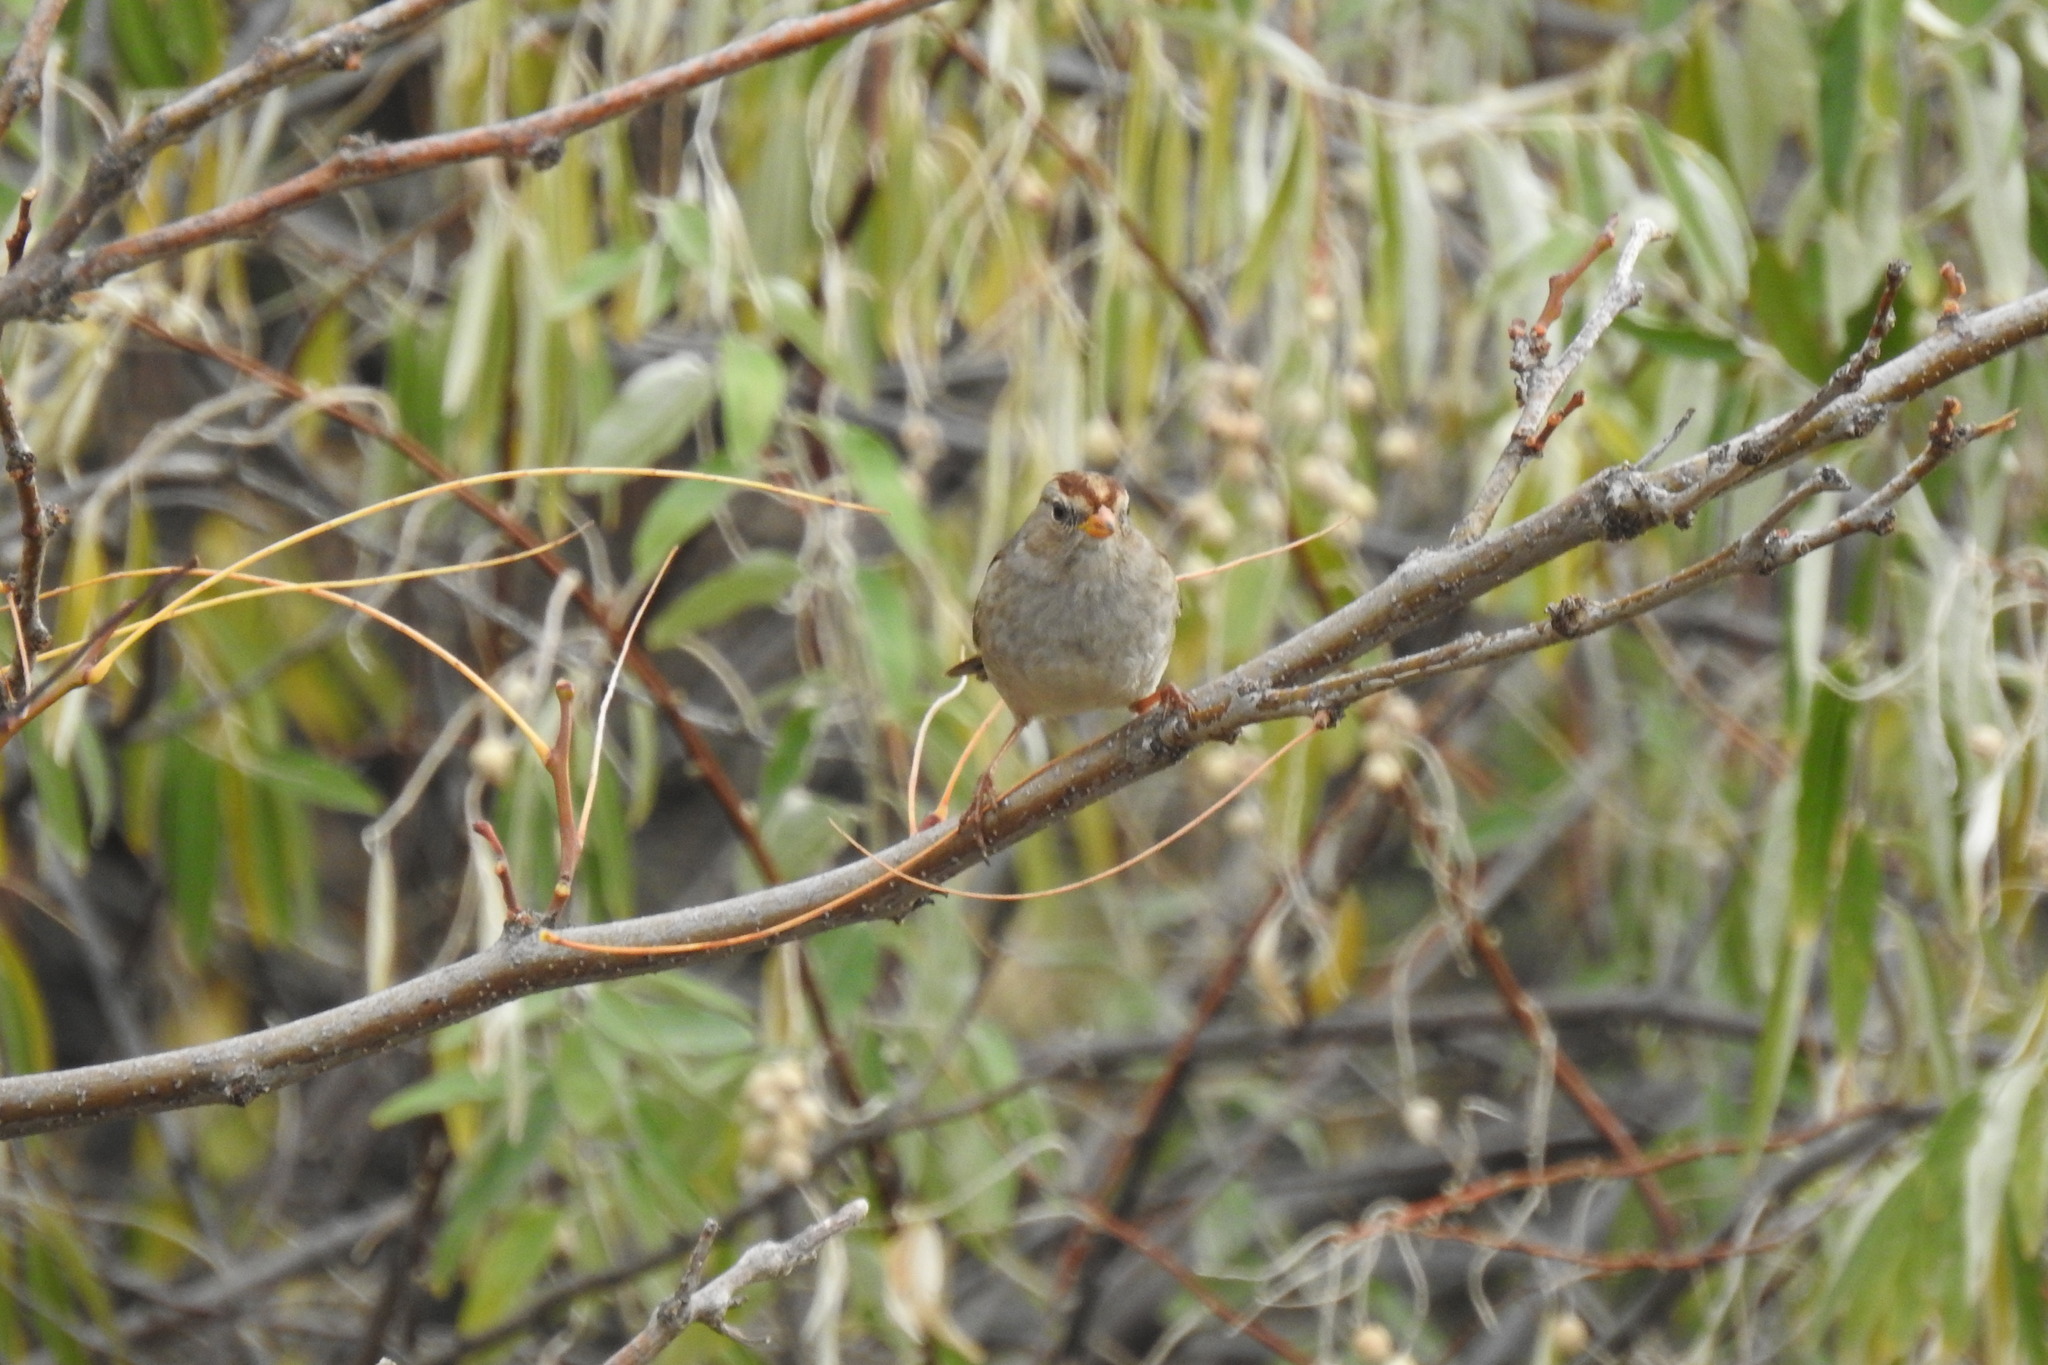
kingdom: Animalia
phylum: Chordata
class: Aves
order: Passeriformes
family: Passerellidae
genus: Zonotrichia
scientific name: Zonotrichia leucophrys
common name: White-crowned sparrow
